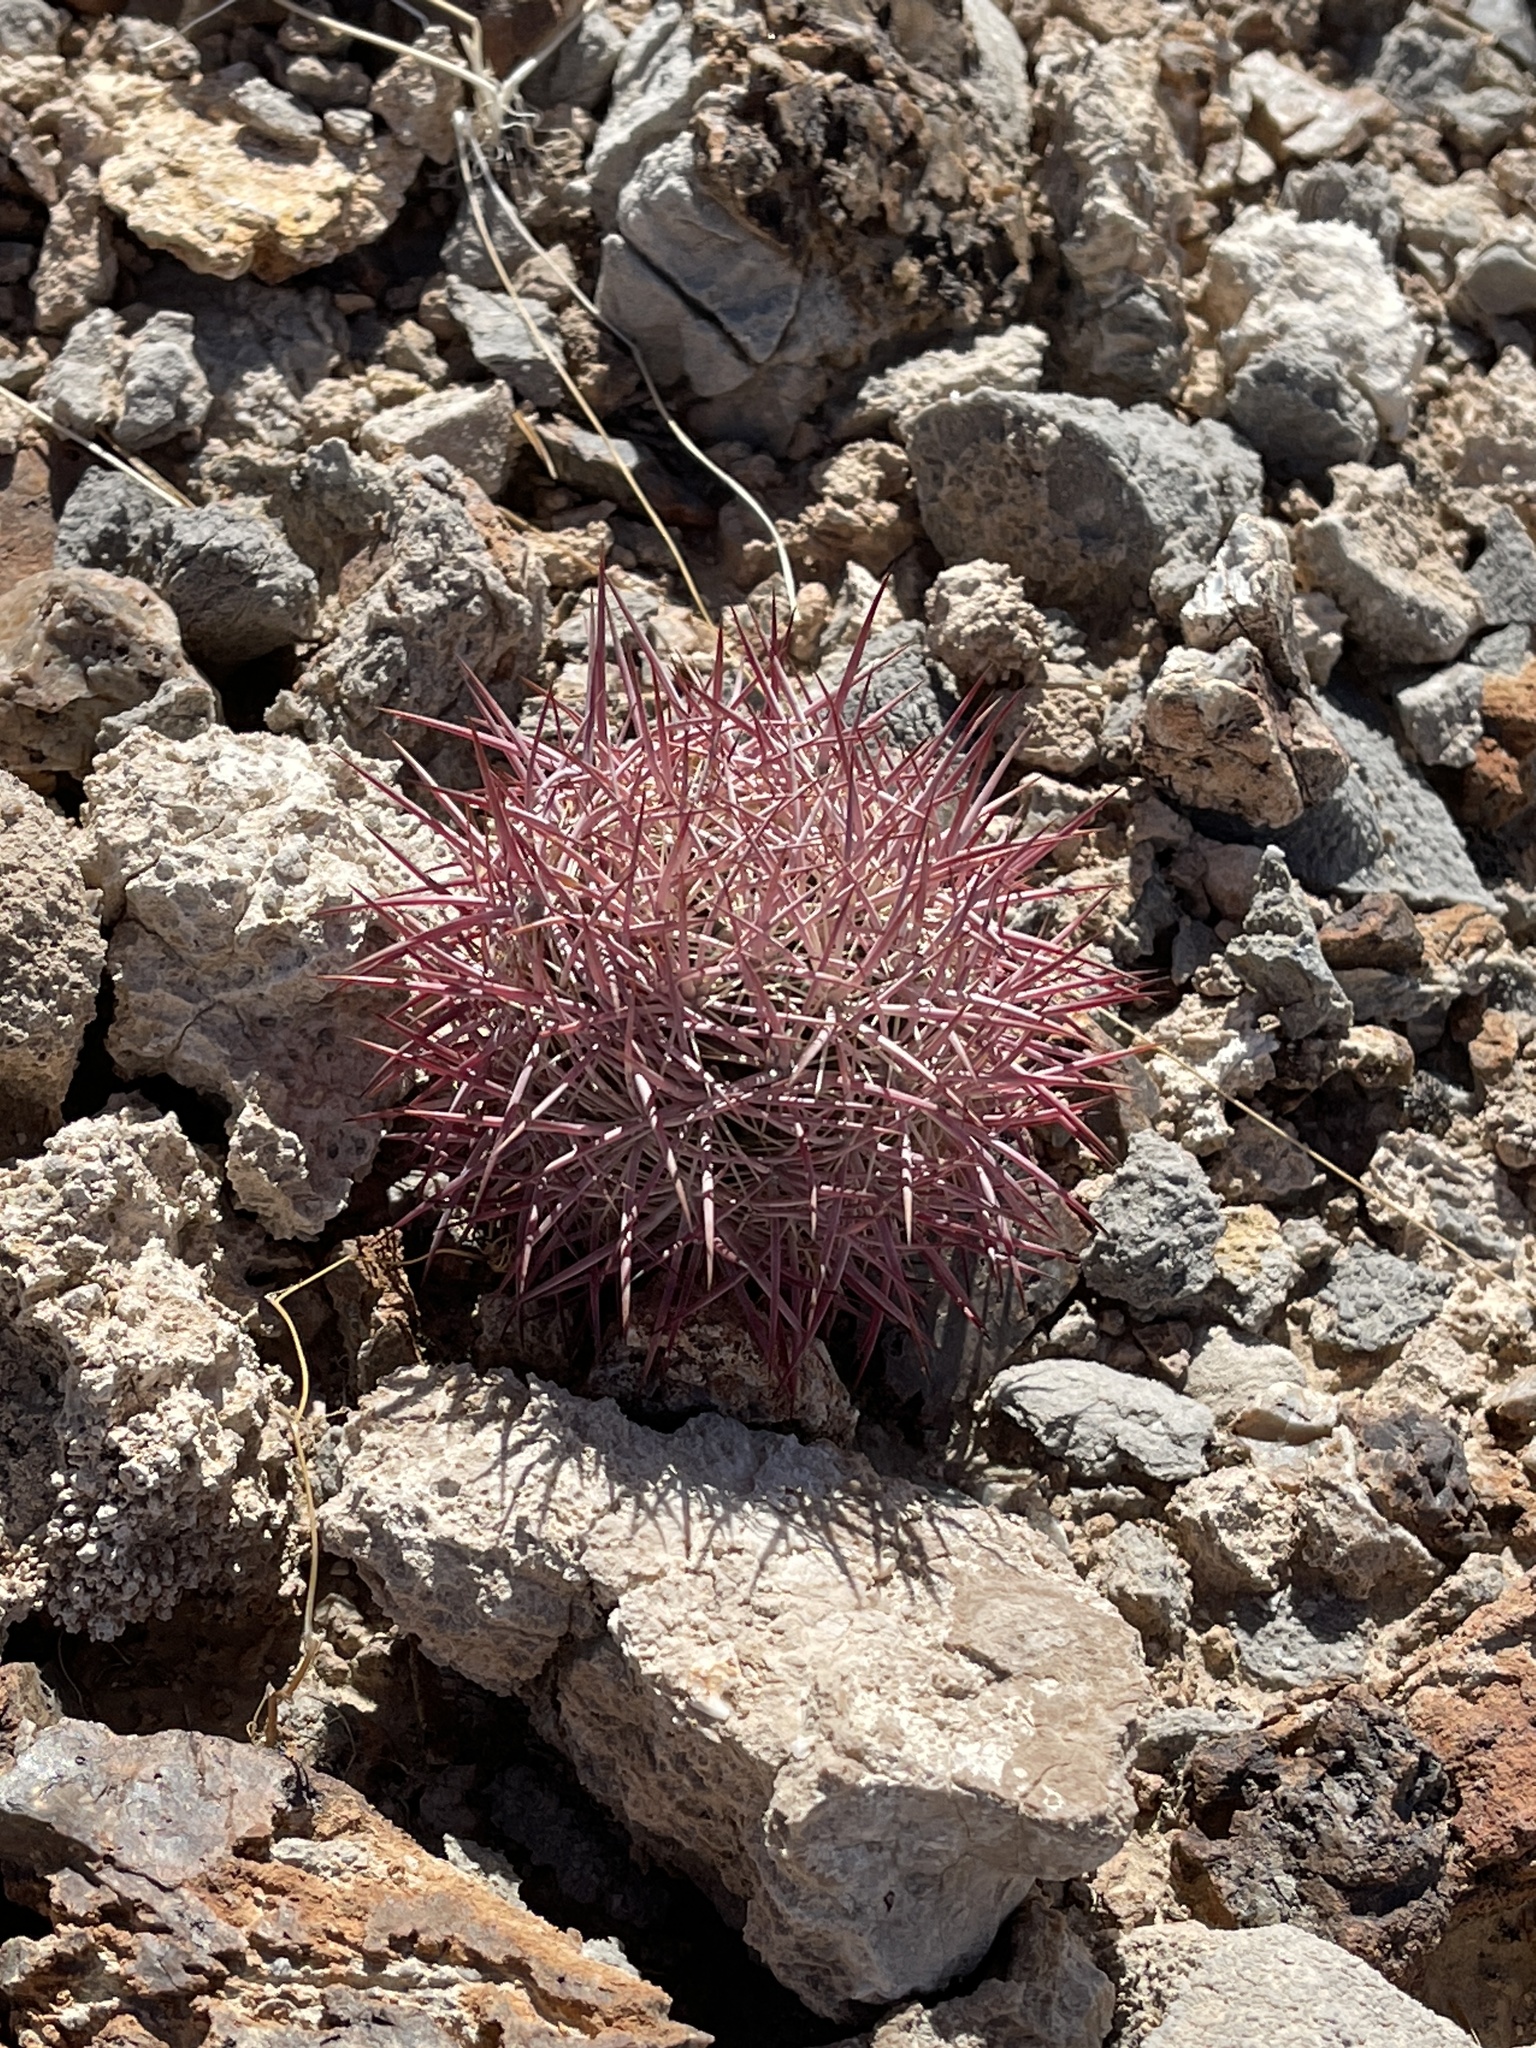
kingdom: Plantae
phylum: Tracheophyta
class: Magnoliopsida
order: Caryophyllales
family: Cactaceae
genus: Sclerocactus
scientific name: Sclerocactus johnsonii
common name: Eight-spine fishhook cactus
